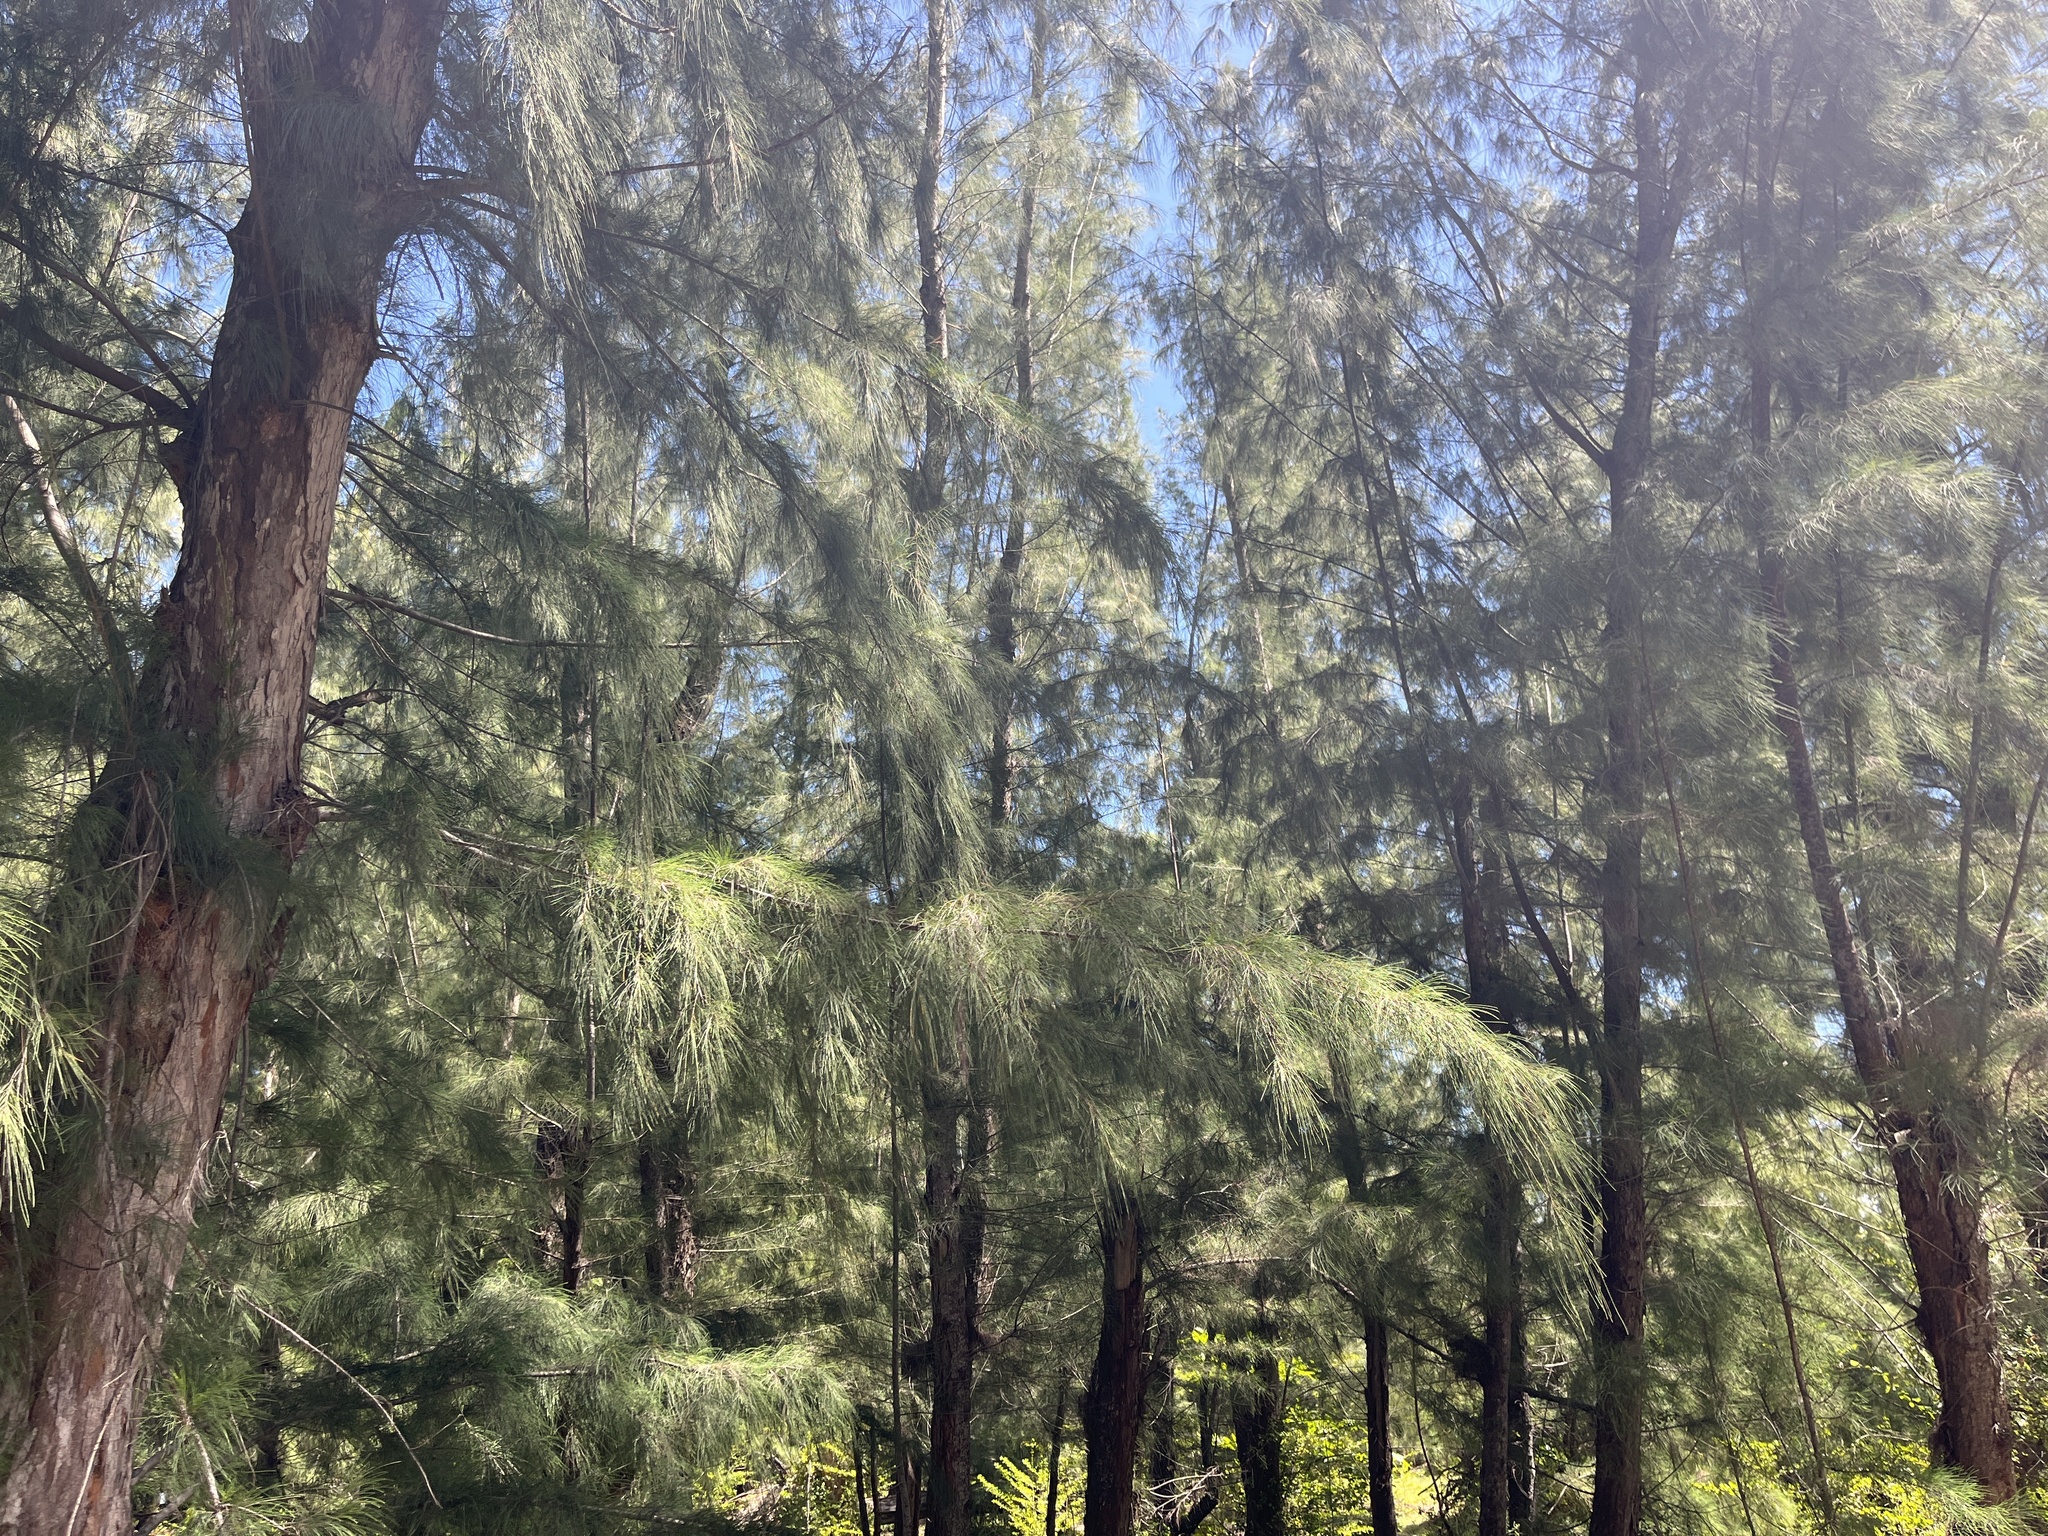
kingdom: Plantae
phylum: Tracheophyta
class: Magnoliopsida
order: Fagales
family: Casuarinaceae
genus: Casuarina
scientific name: Casuarina equisetifolia
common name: Beach sheoak
